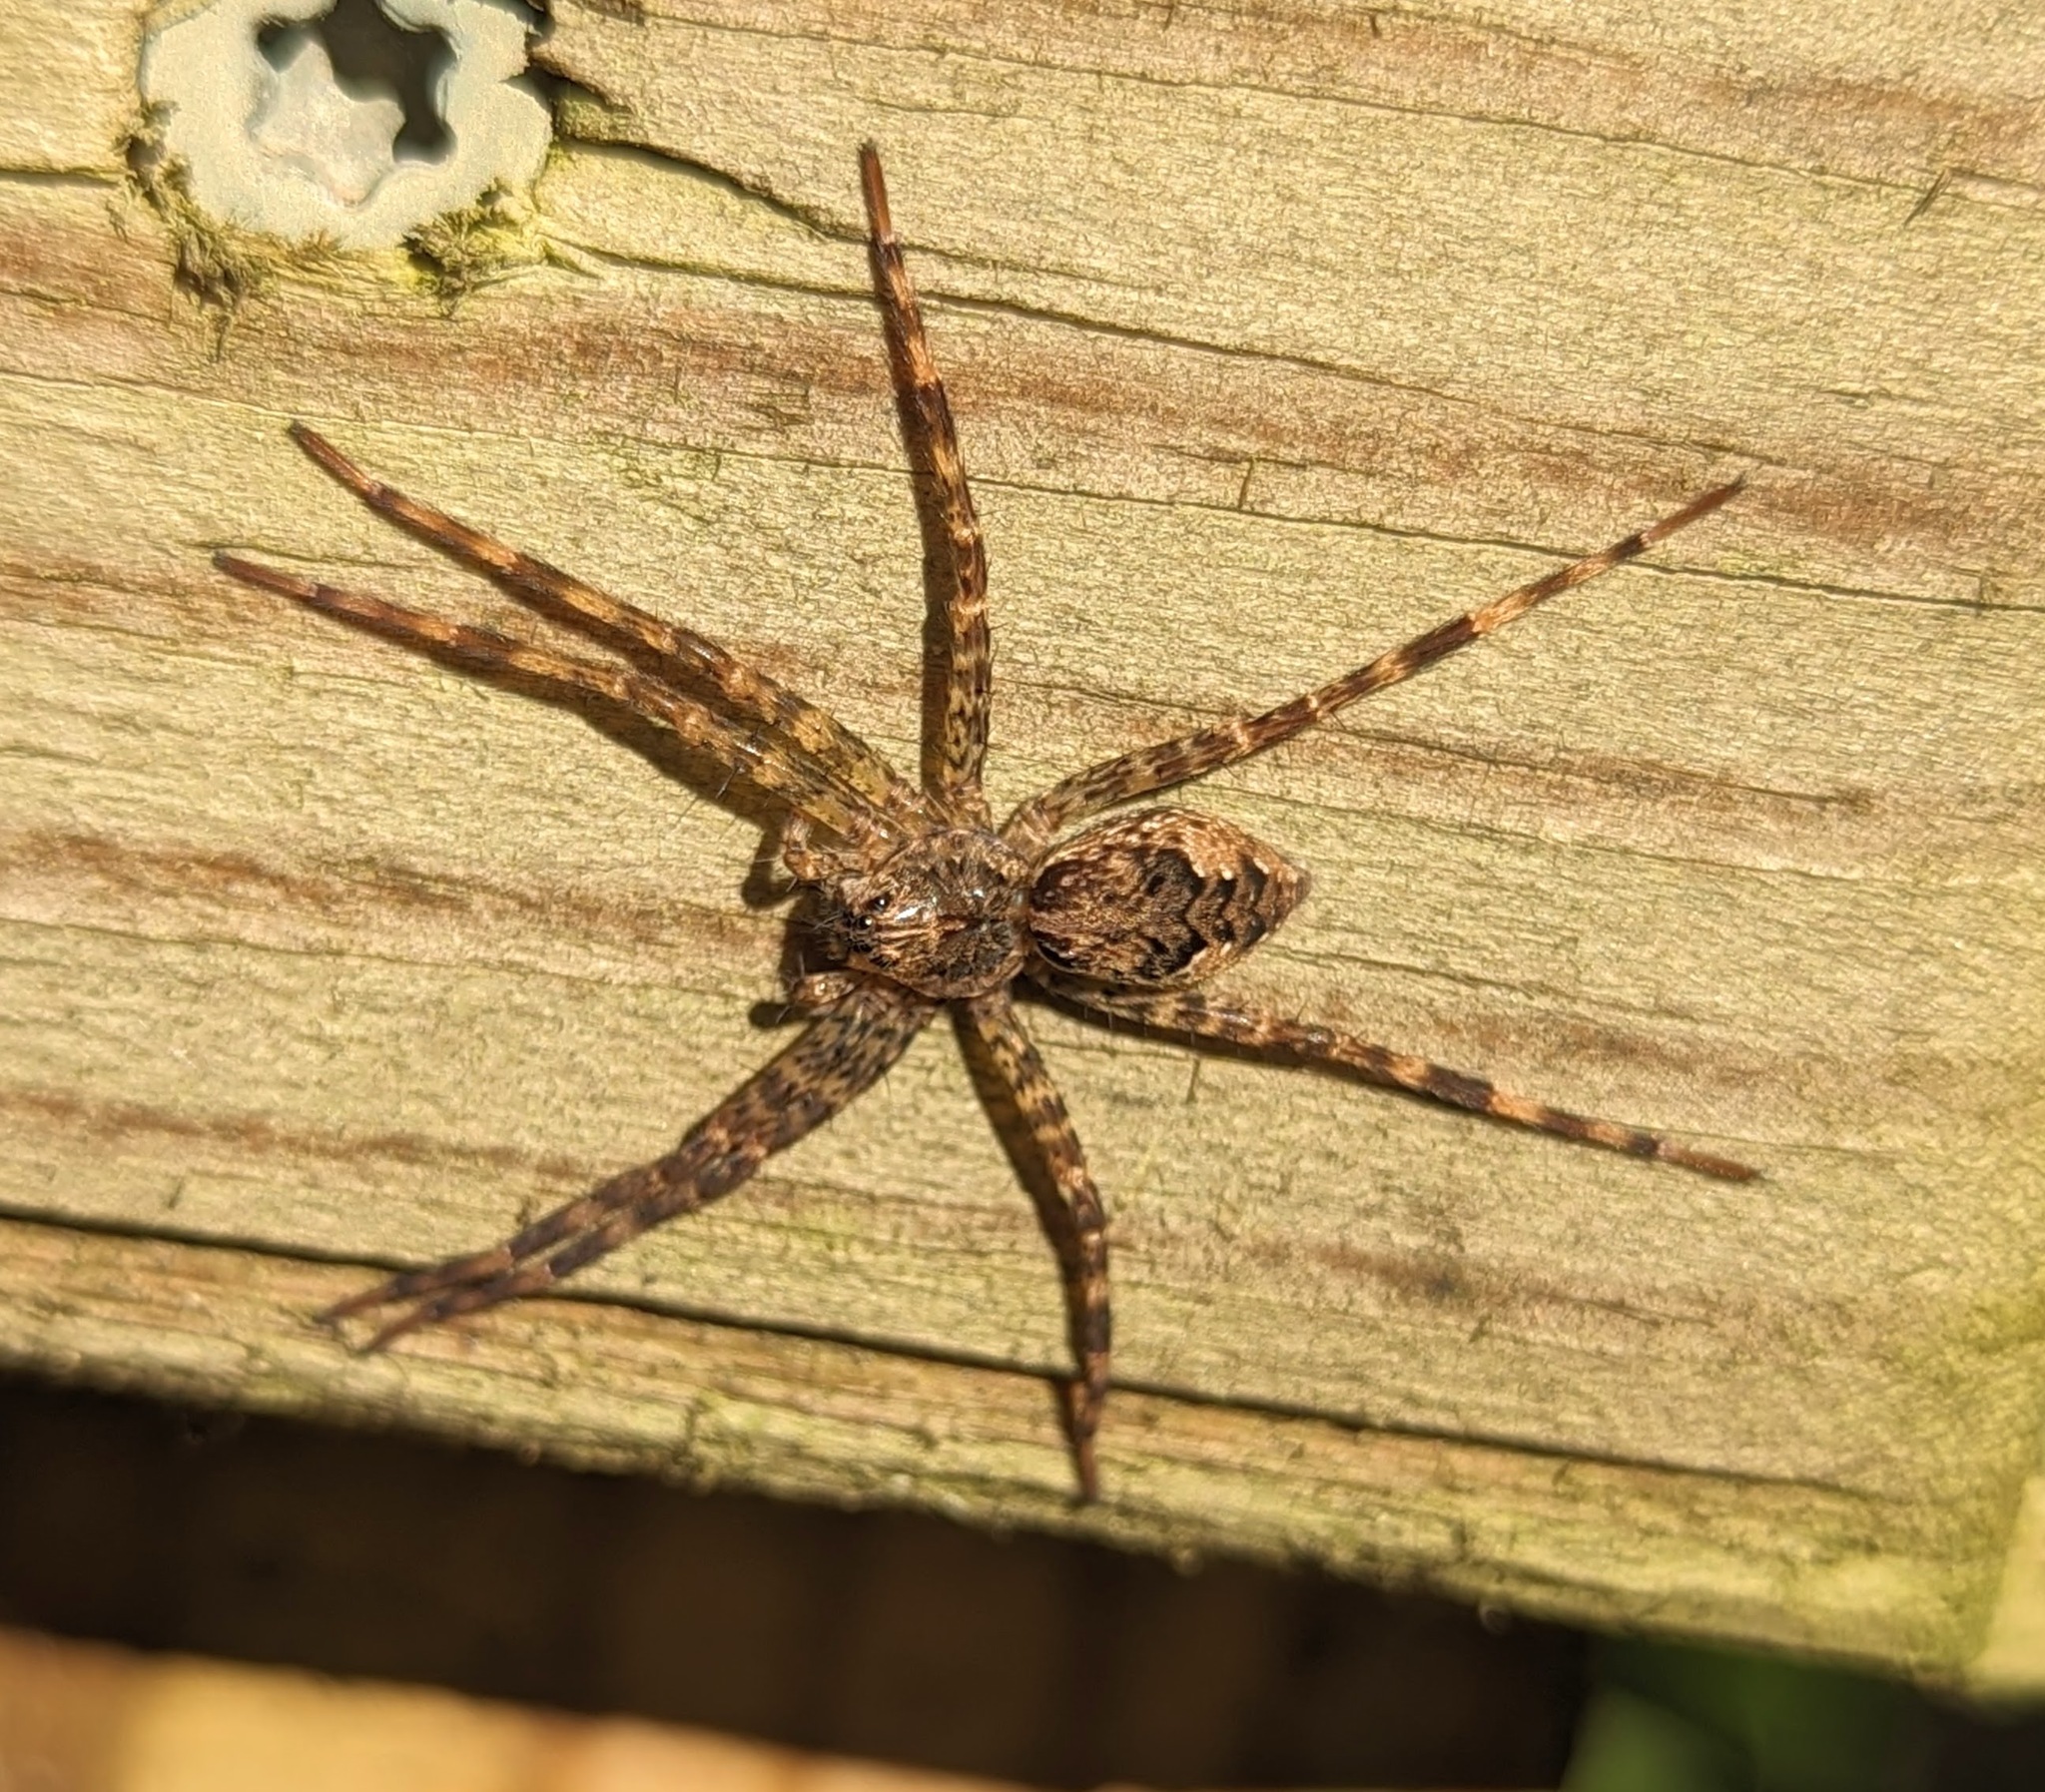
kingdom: Animalia
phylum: Arthropoda
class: Arachnida
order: Araneae
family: Pisauridae
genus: Dolomedes
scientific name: Dolomedes tenebrosus
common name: Dark fishing spider
